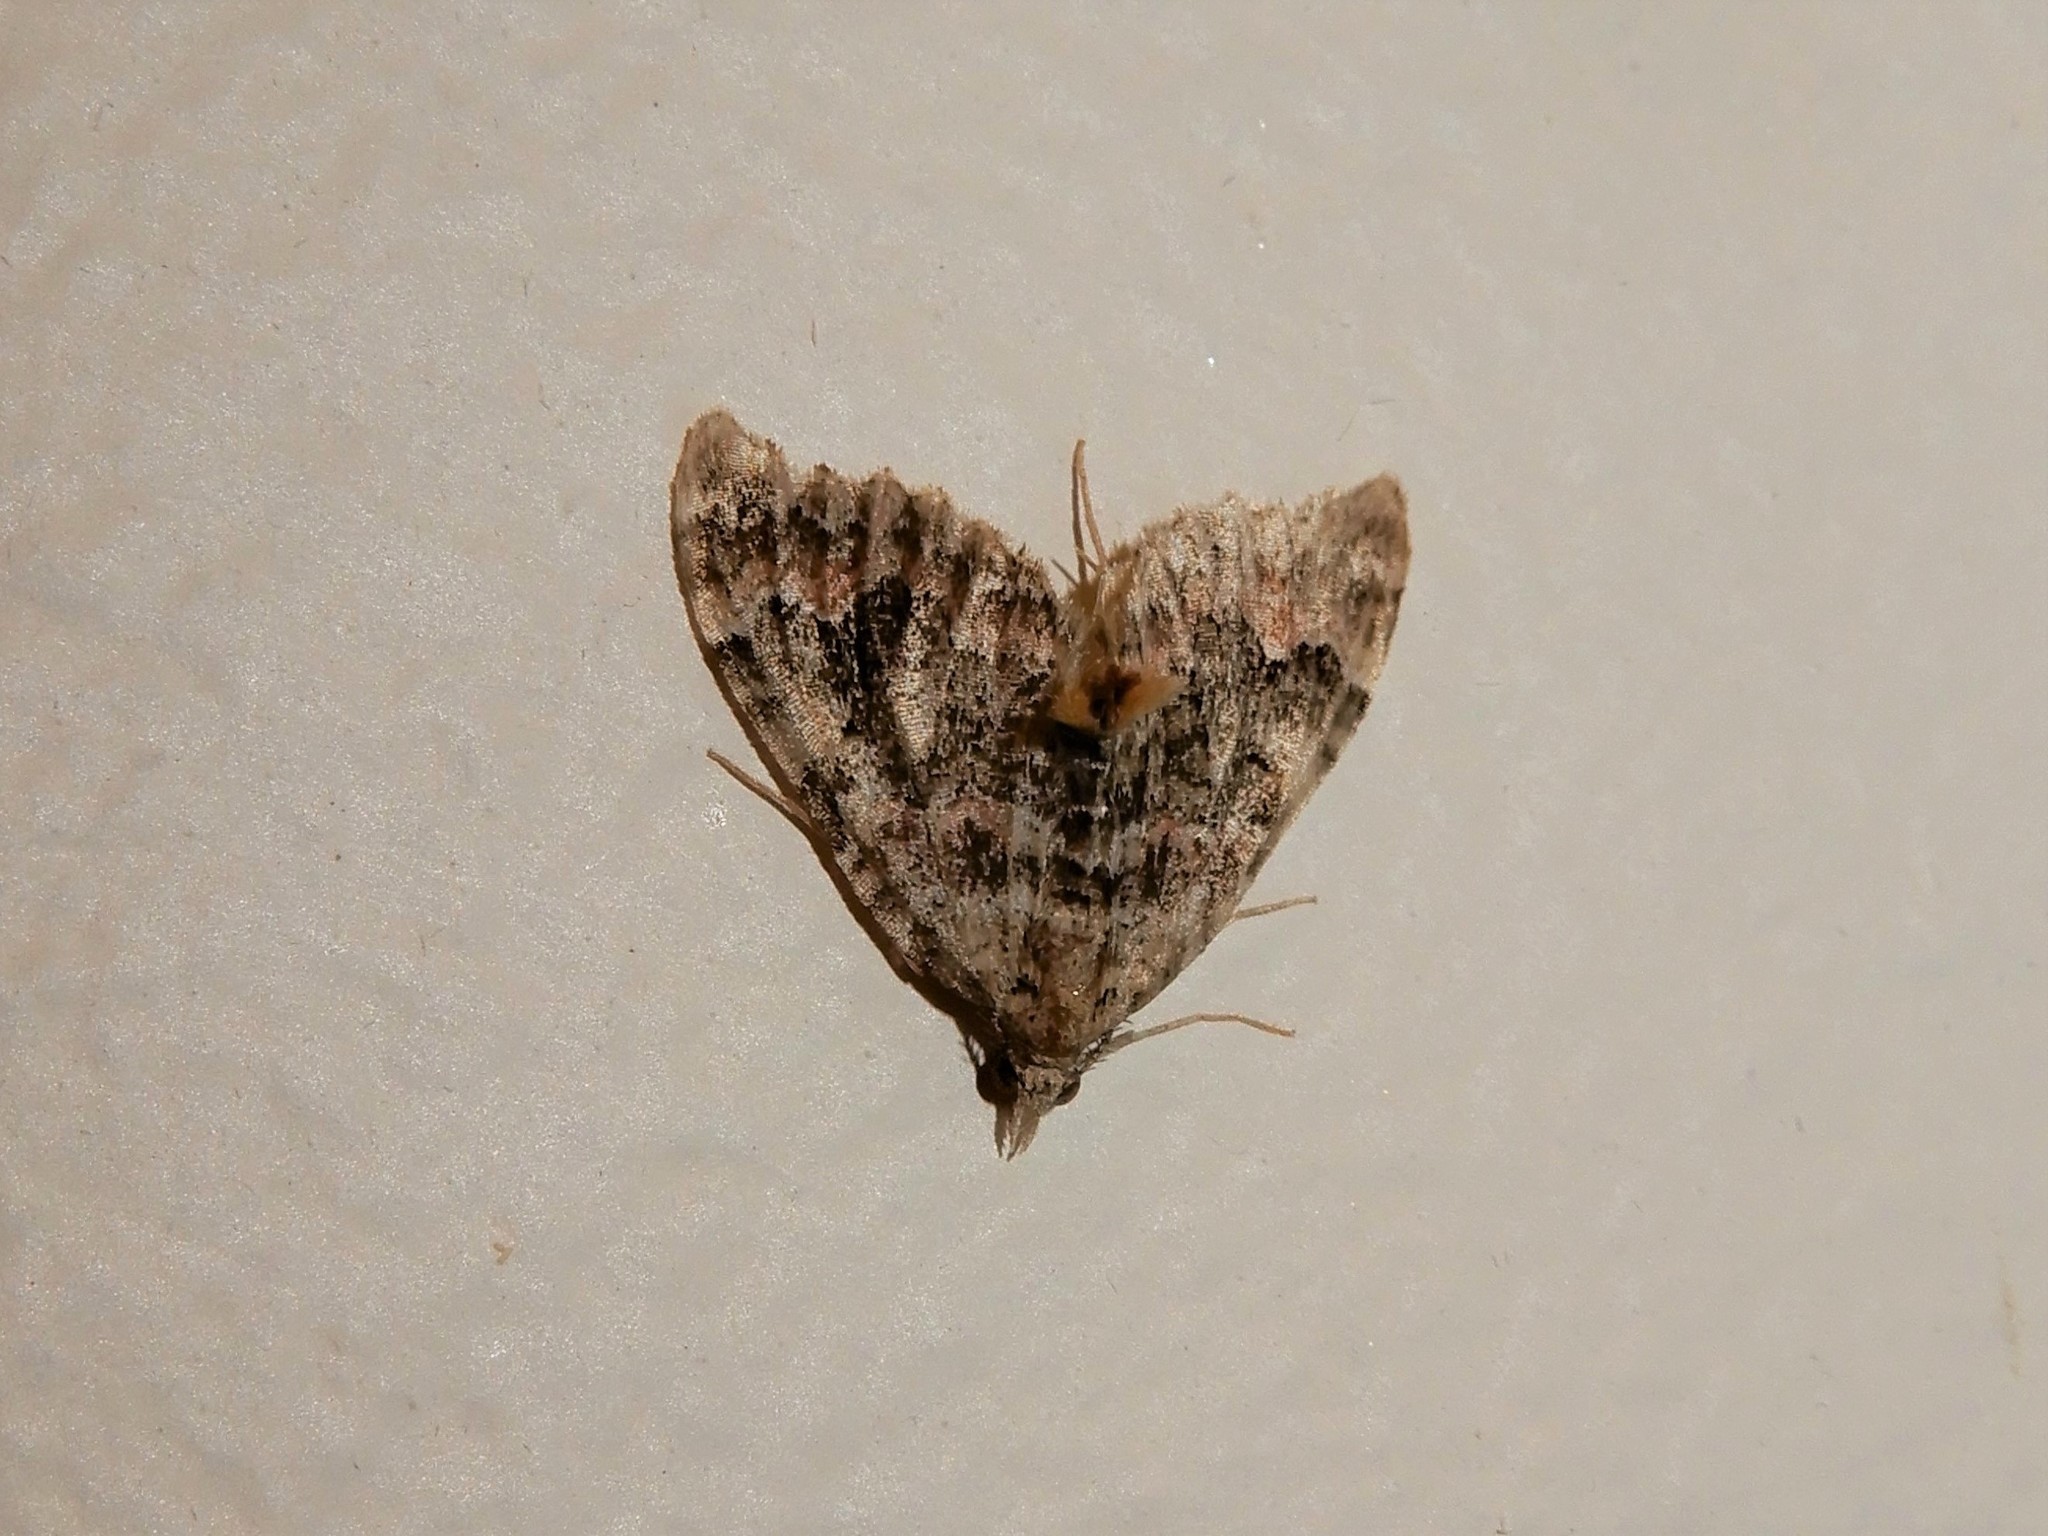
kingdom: Animalia
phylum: Arthropoda
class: Insecta
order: Lepidoptera
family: Geometridae
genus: Helastia
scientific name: Helastia cymozeucta
